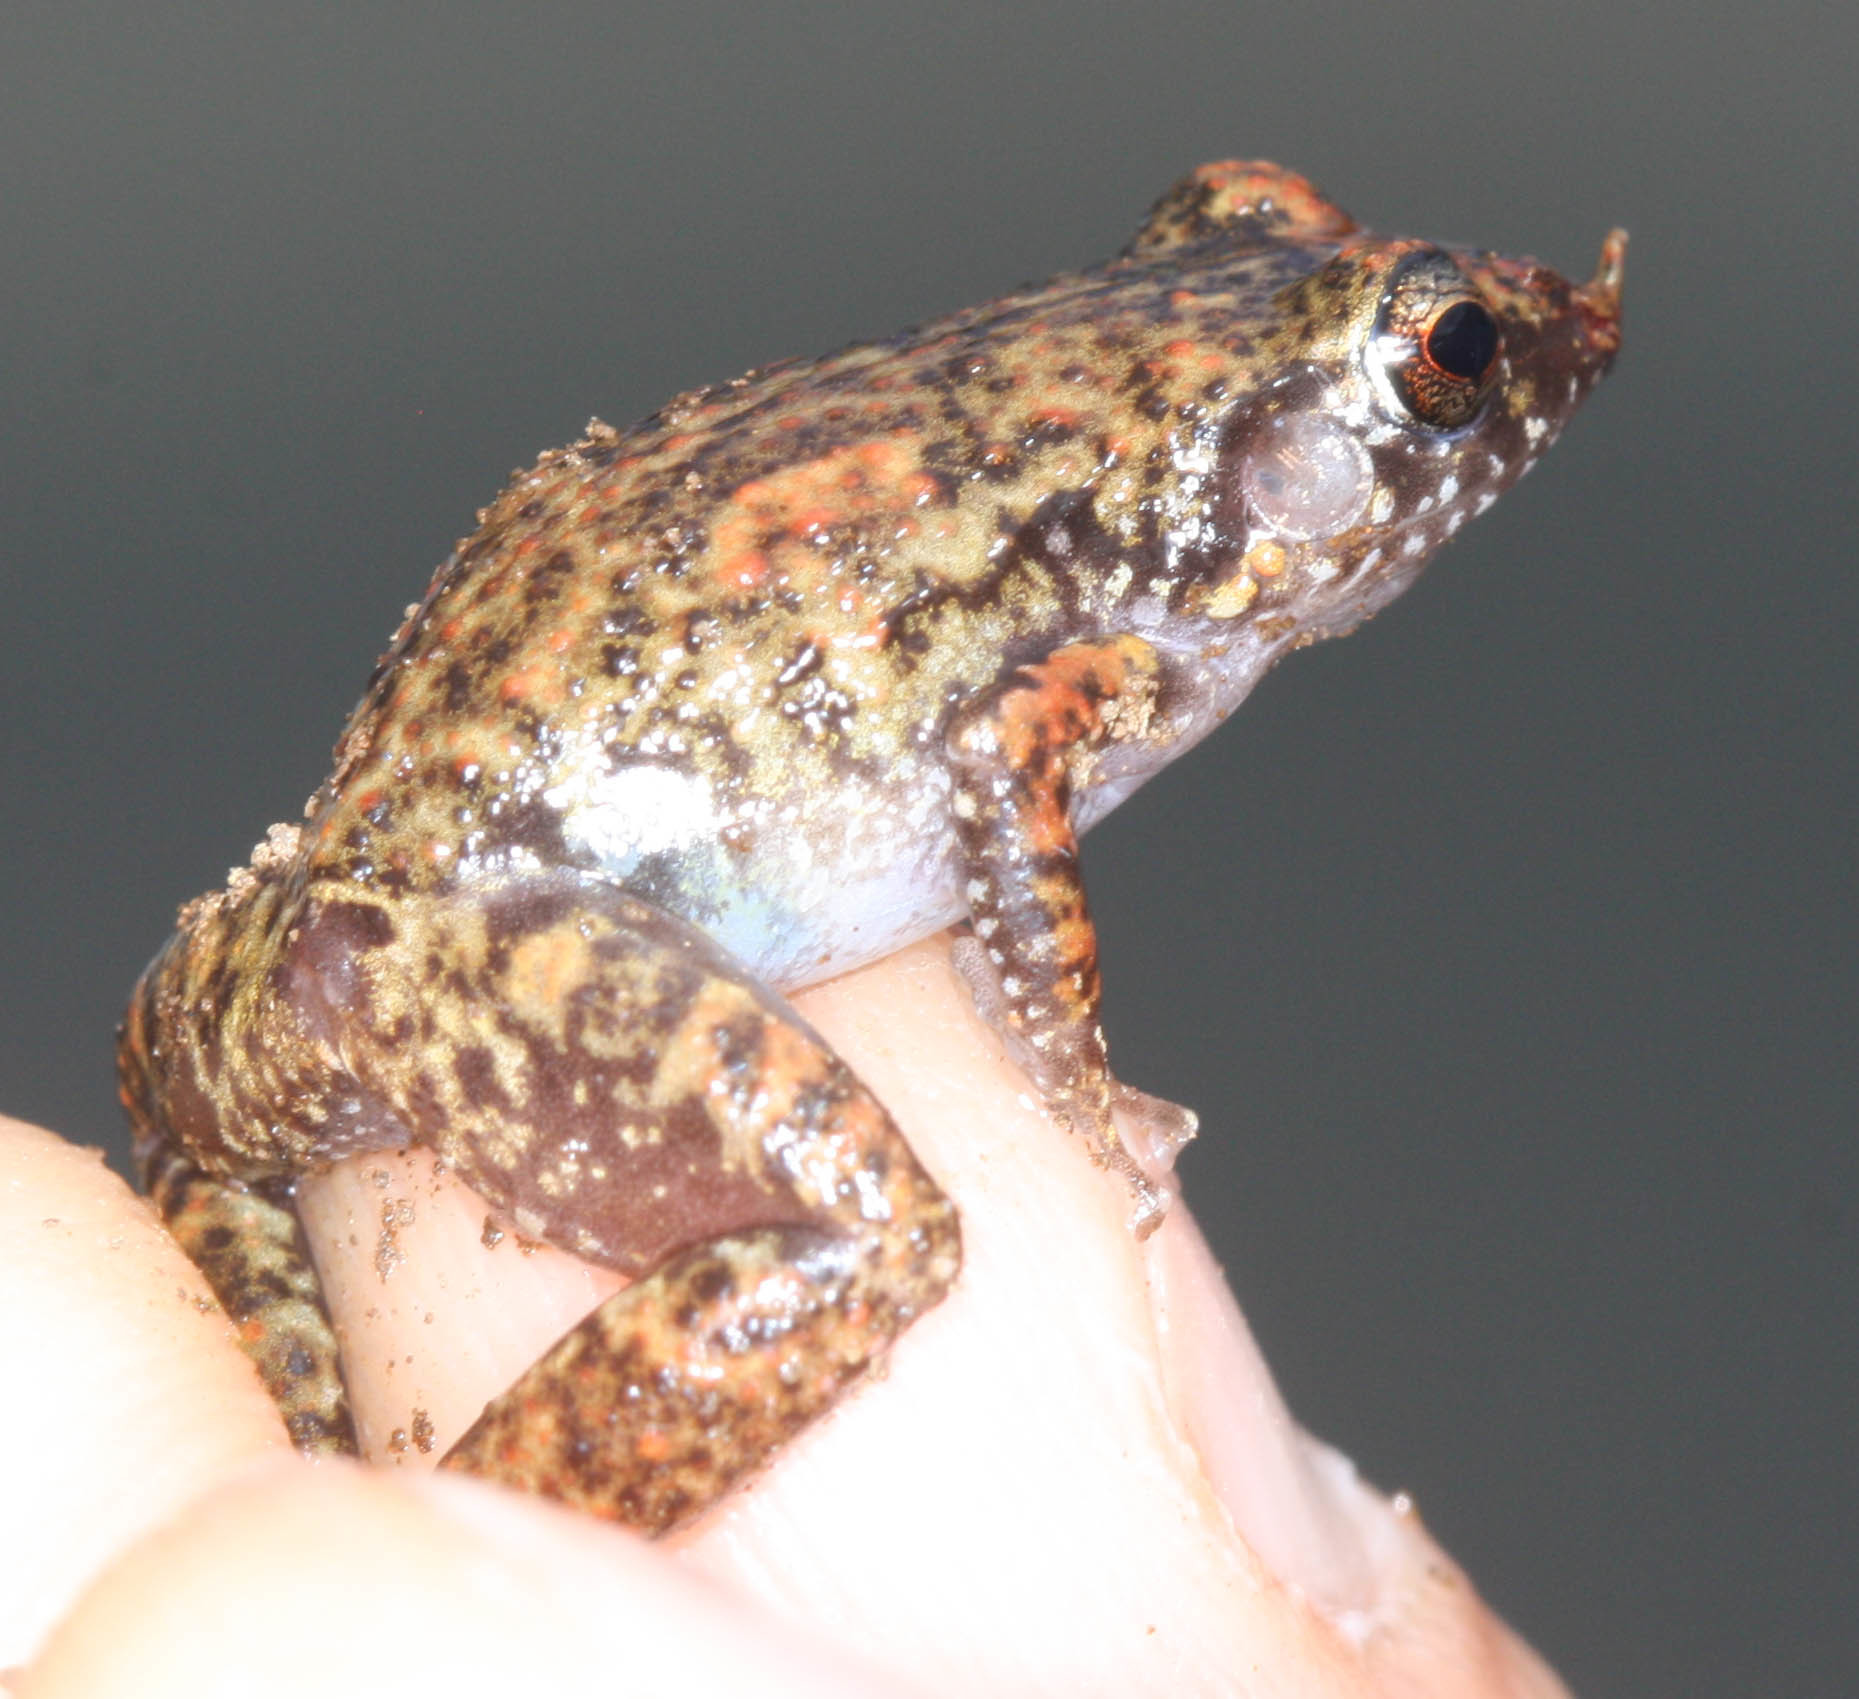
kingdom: Animalia
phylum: Chordata
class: Amphibia
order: Anura
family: Eleutherodactylidae
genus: Eleutherodactylus
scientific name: Eleutherodactylus planirostris
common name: Greenhouse frog
